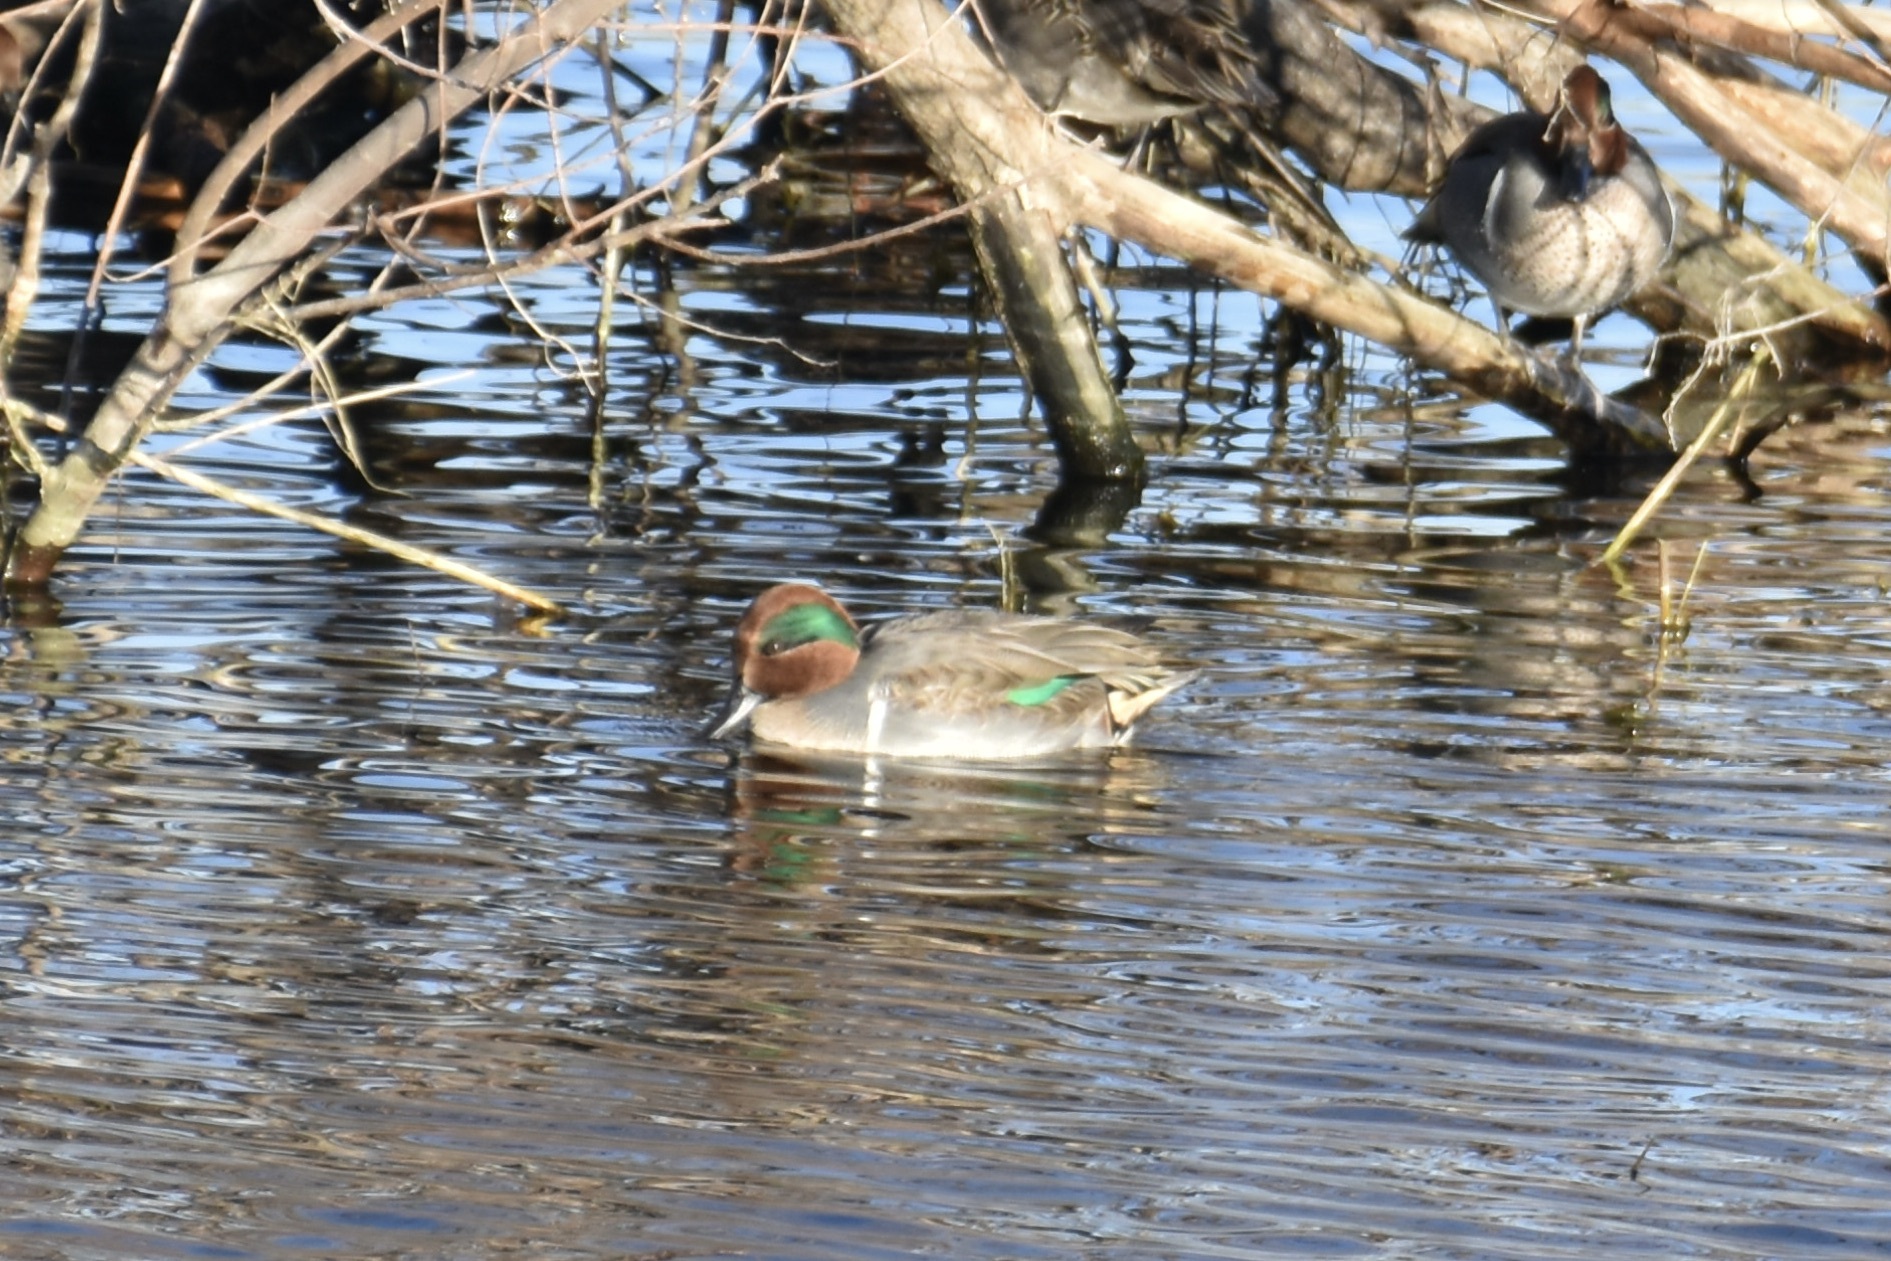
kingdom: Animalia
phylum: Chordata
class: Aves
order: Anseriformes
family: Anatidae
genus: Anas
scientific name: Anas crecca
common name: Eurasian teal
